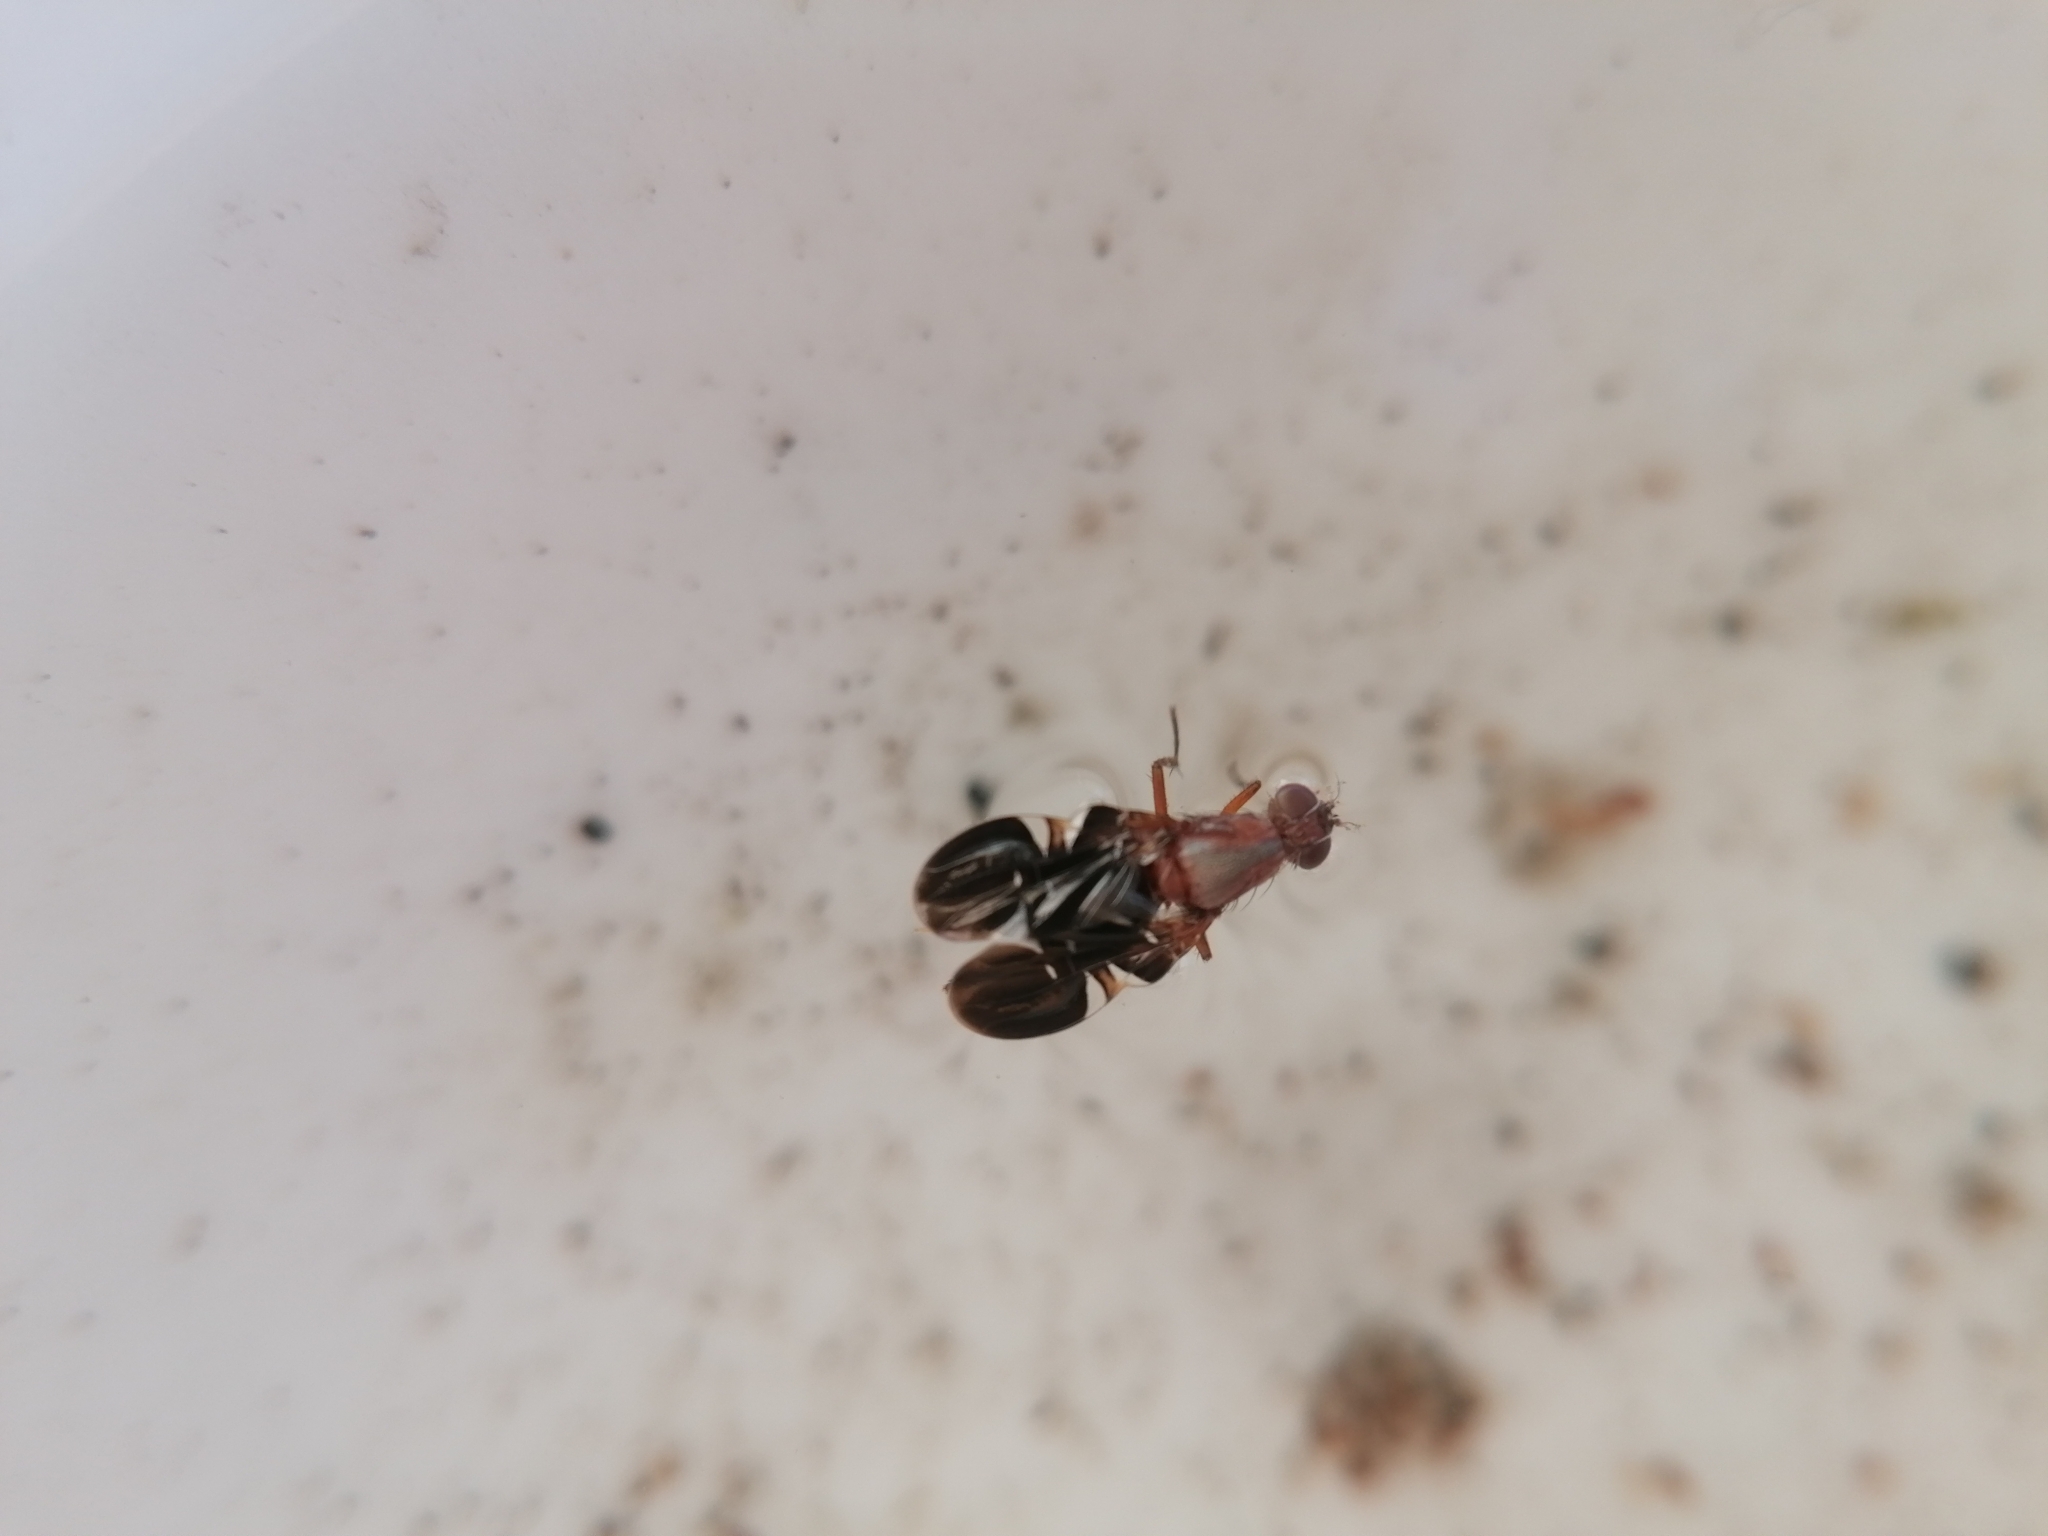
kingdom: Animalia
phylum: Arthropoda
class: Insecta
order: Diptera
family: Ulidiidae
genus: Delphinia
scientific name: Delphinia picta
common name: Common picture-winged fly
